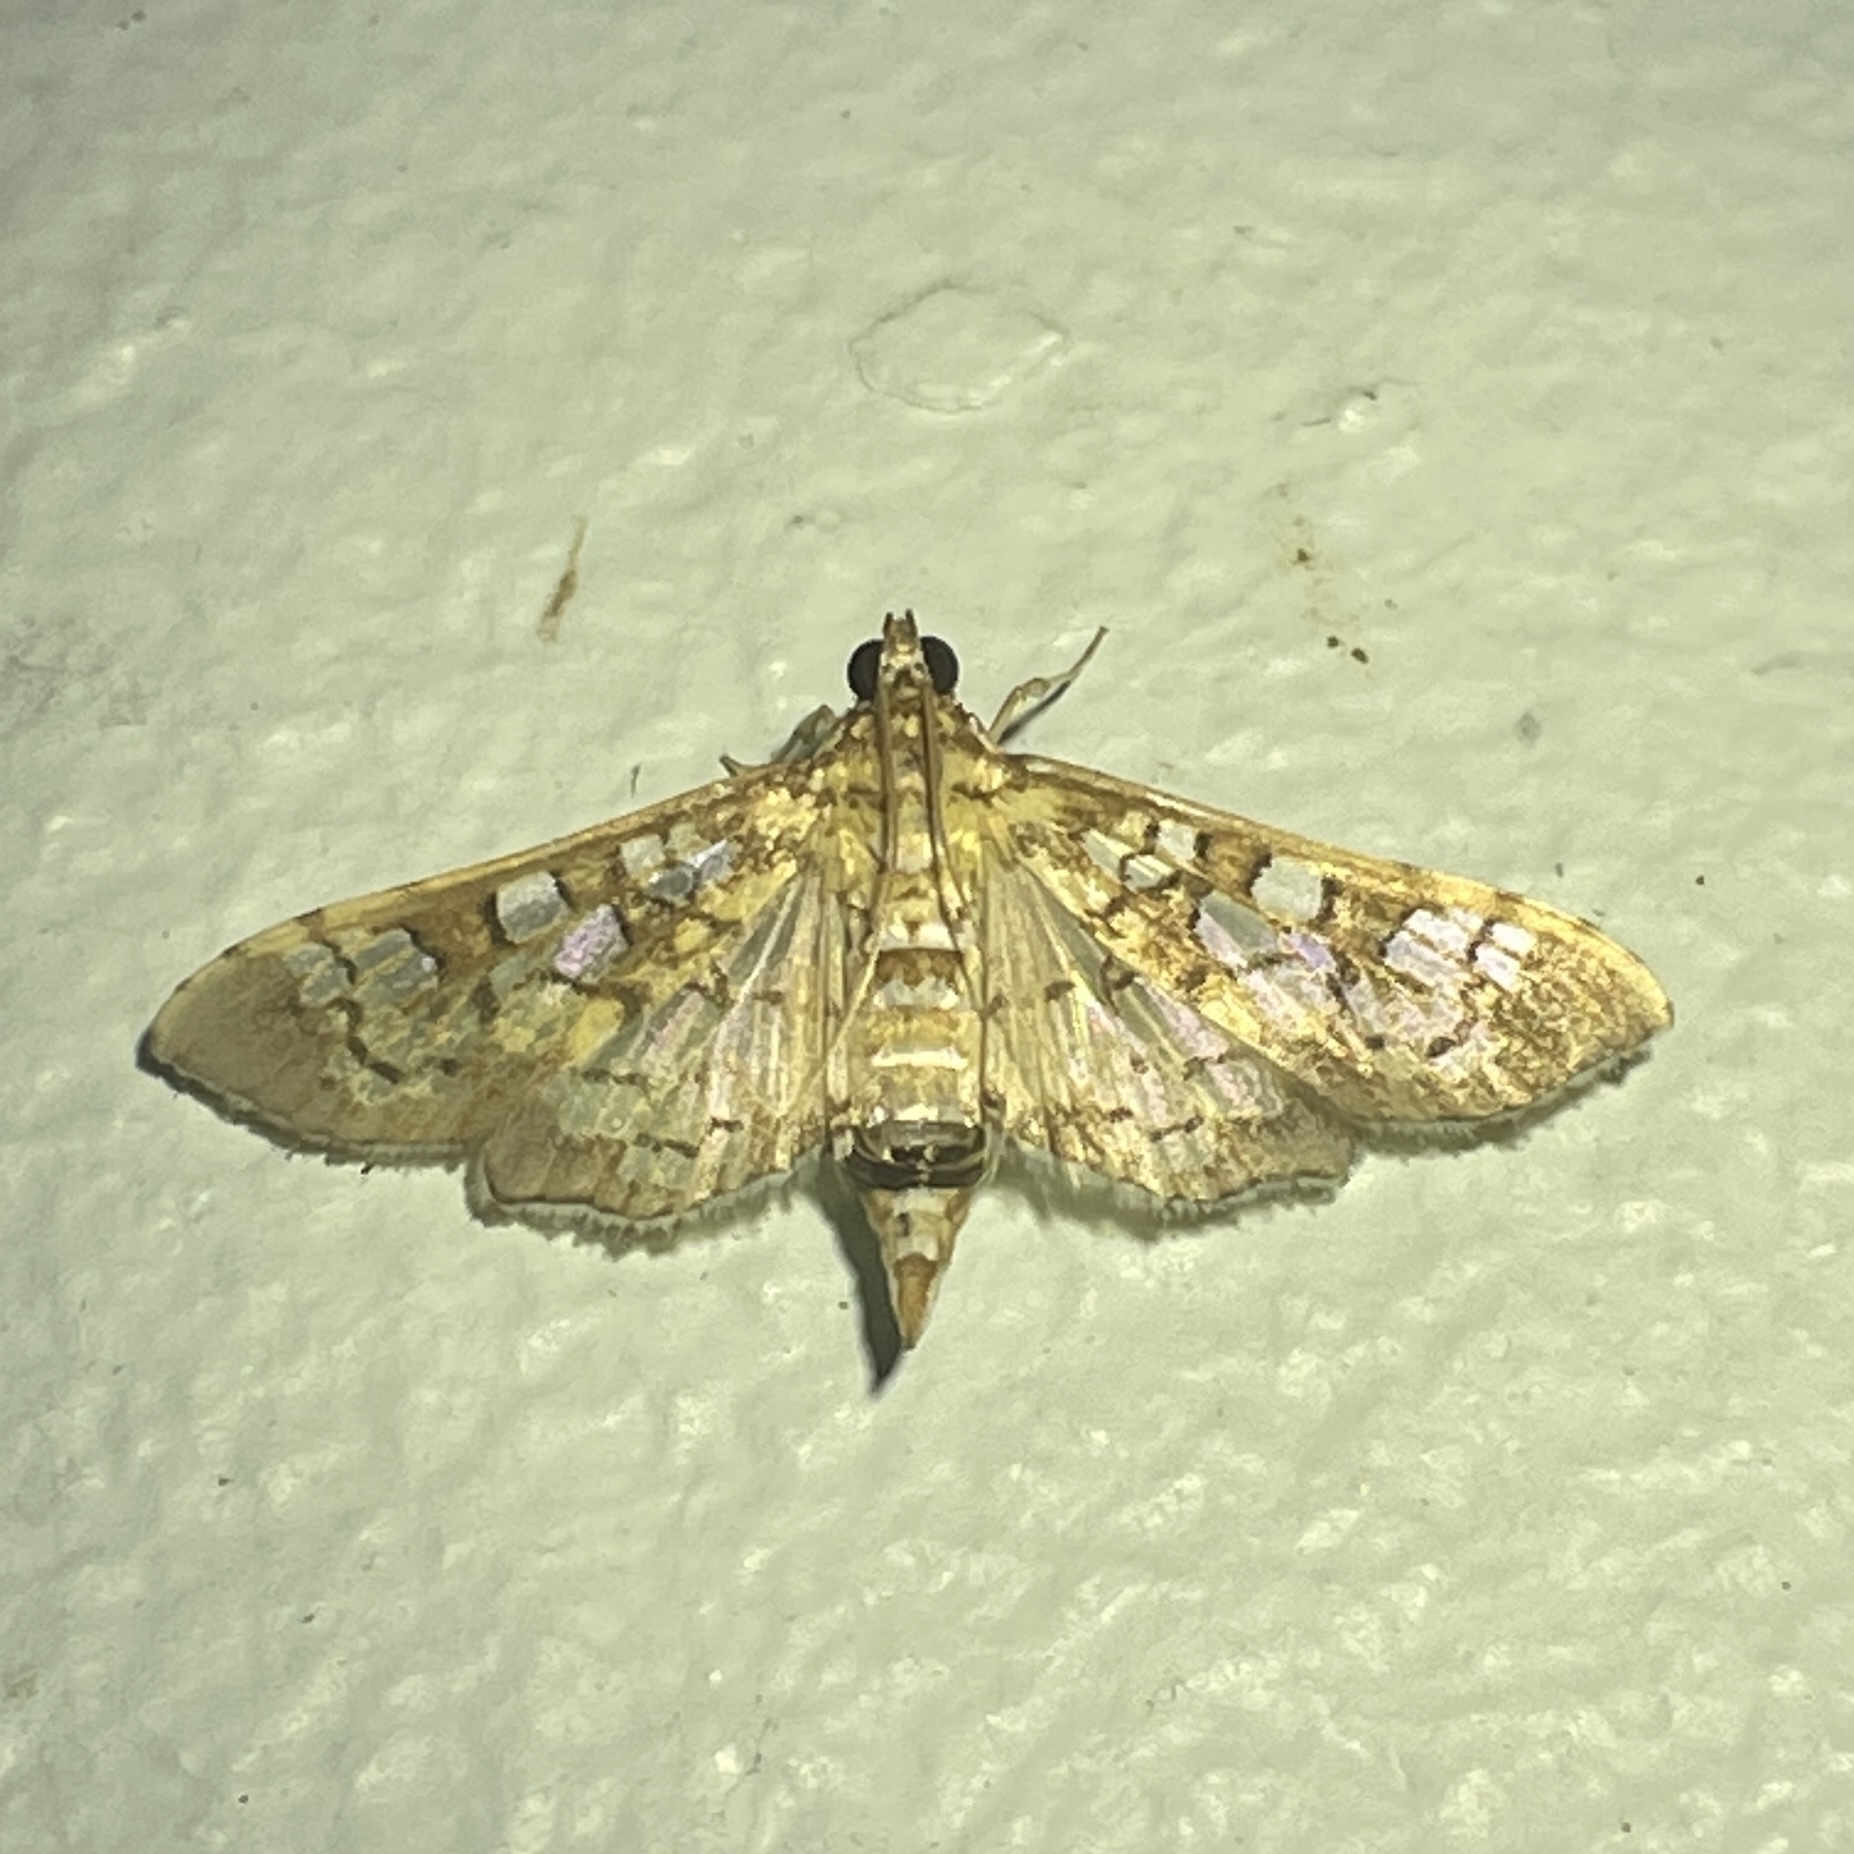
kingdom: Animalia
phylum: Arthropoda
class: Insecta
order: Lepidoptera
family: Crambidae
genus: Samea
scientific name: Samea ecclesialis
